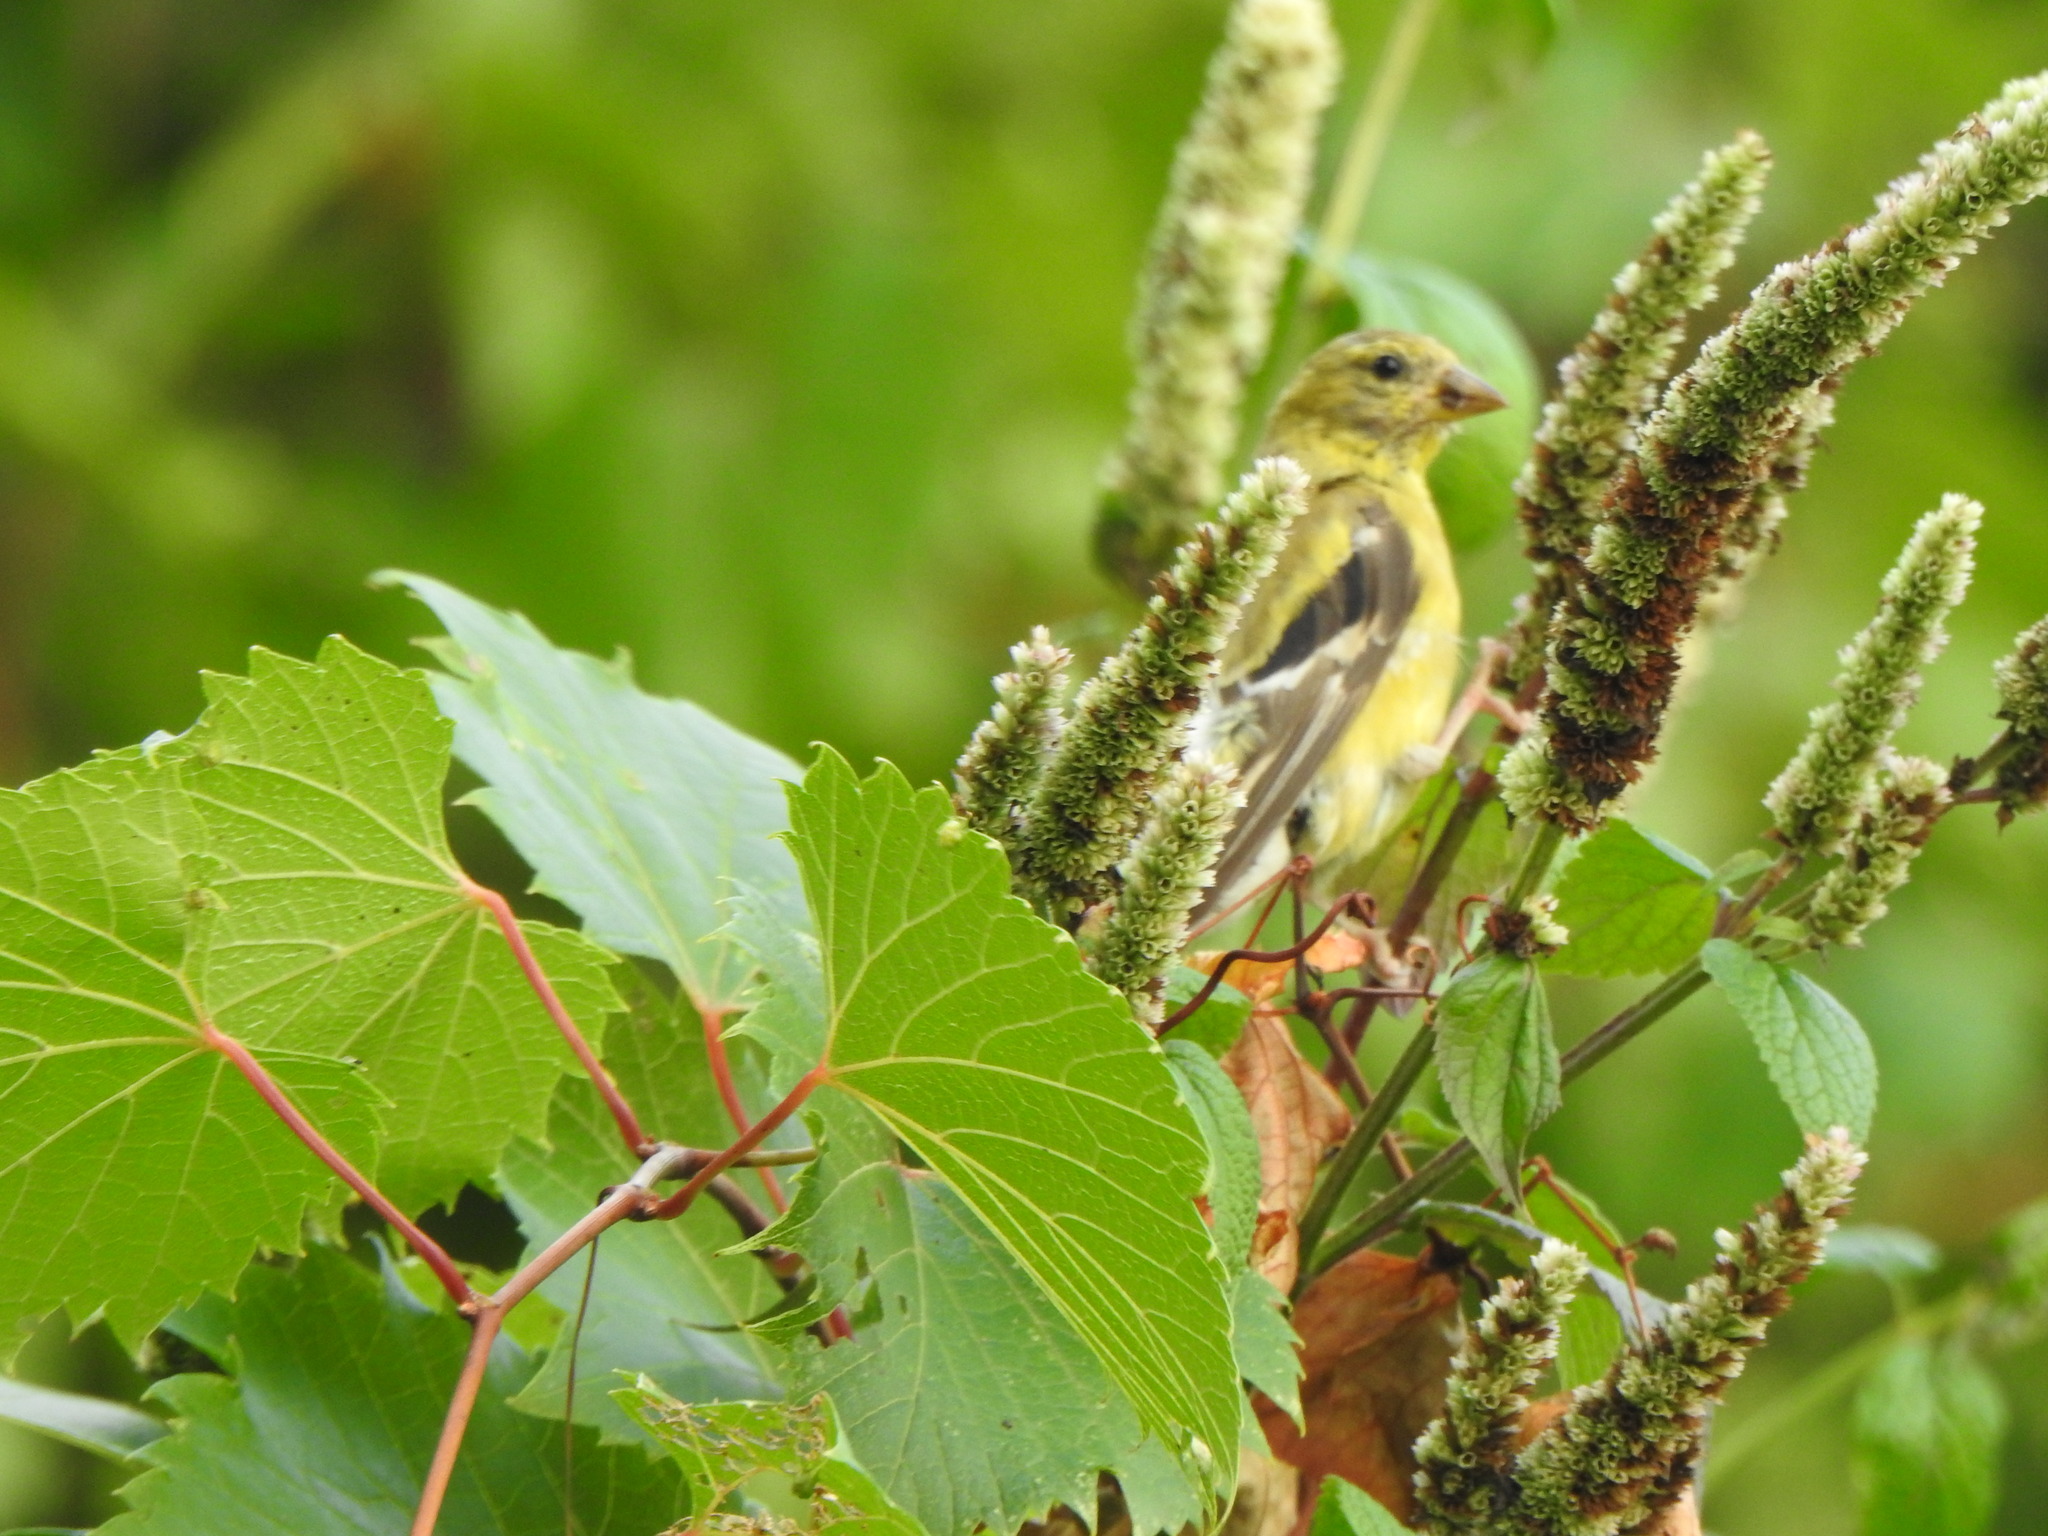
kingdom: Animalia
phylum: Chordata
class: Aves
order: Passeriformes
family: Fringillidae
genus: Spinus
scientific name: Spinus tristis
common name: American goldfinch
